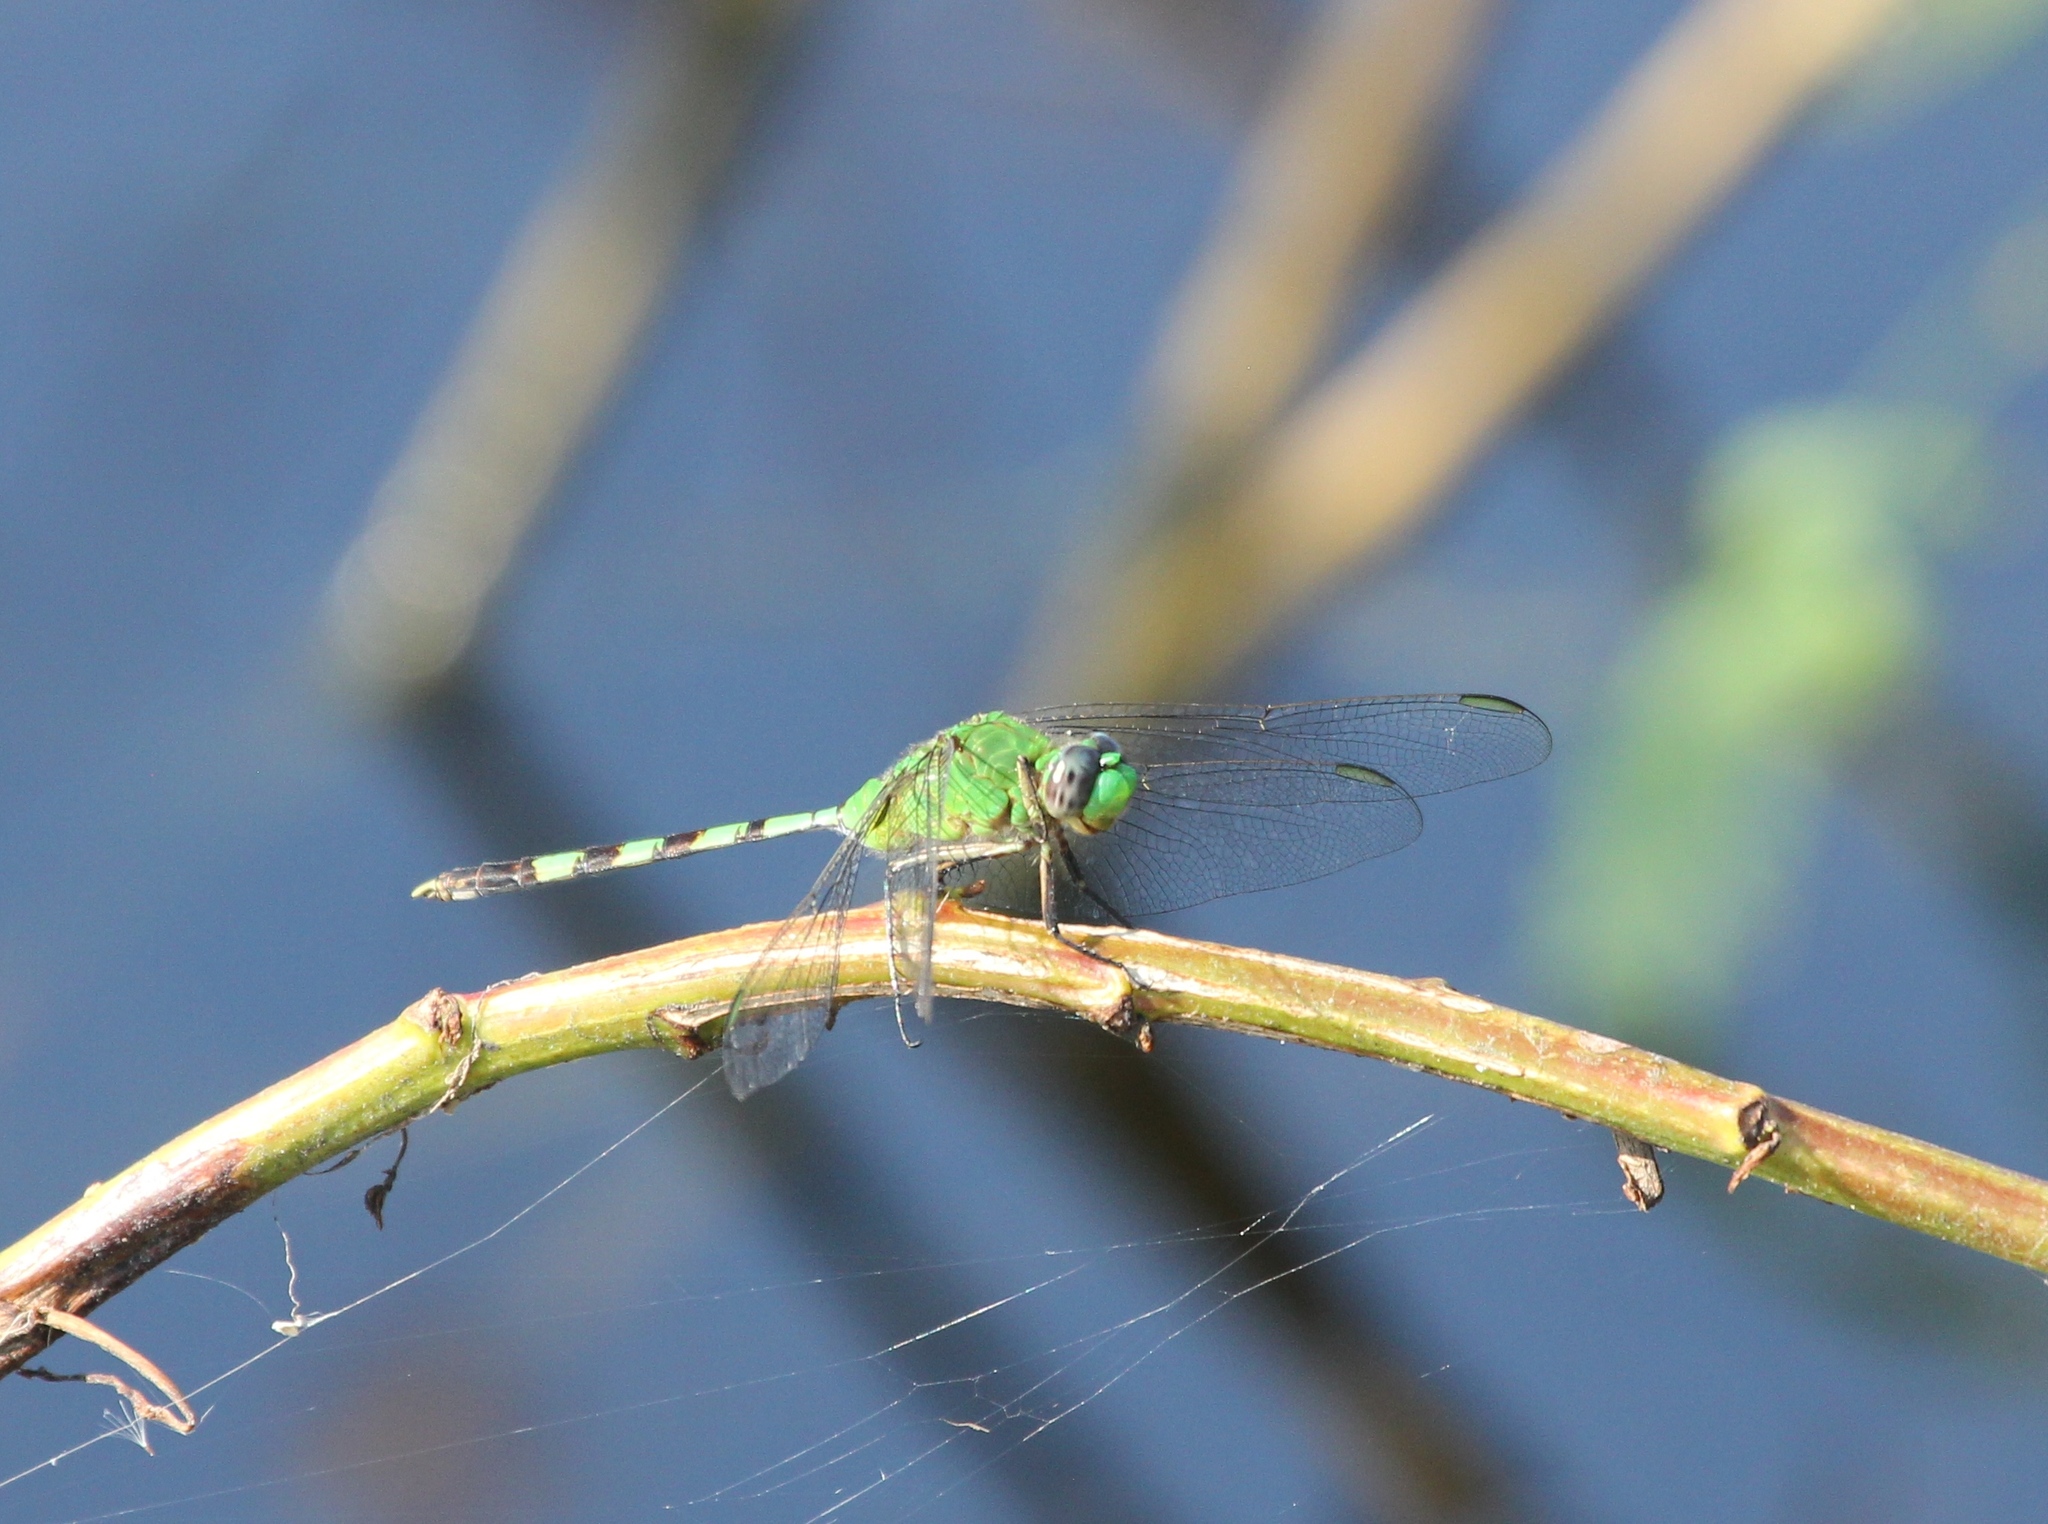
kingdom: Animalia
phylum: Arthropoda
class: Insecta
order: Odonata
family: Libellulidae
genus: Erythemis
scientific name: Erythemis vesiculosa
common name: Great pondhawk
